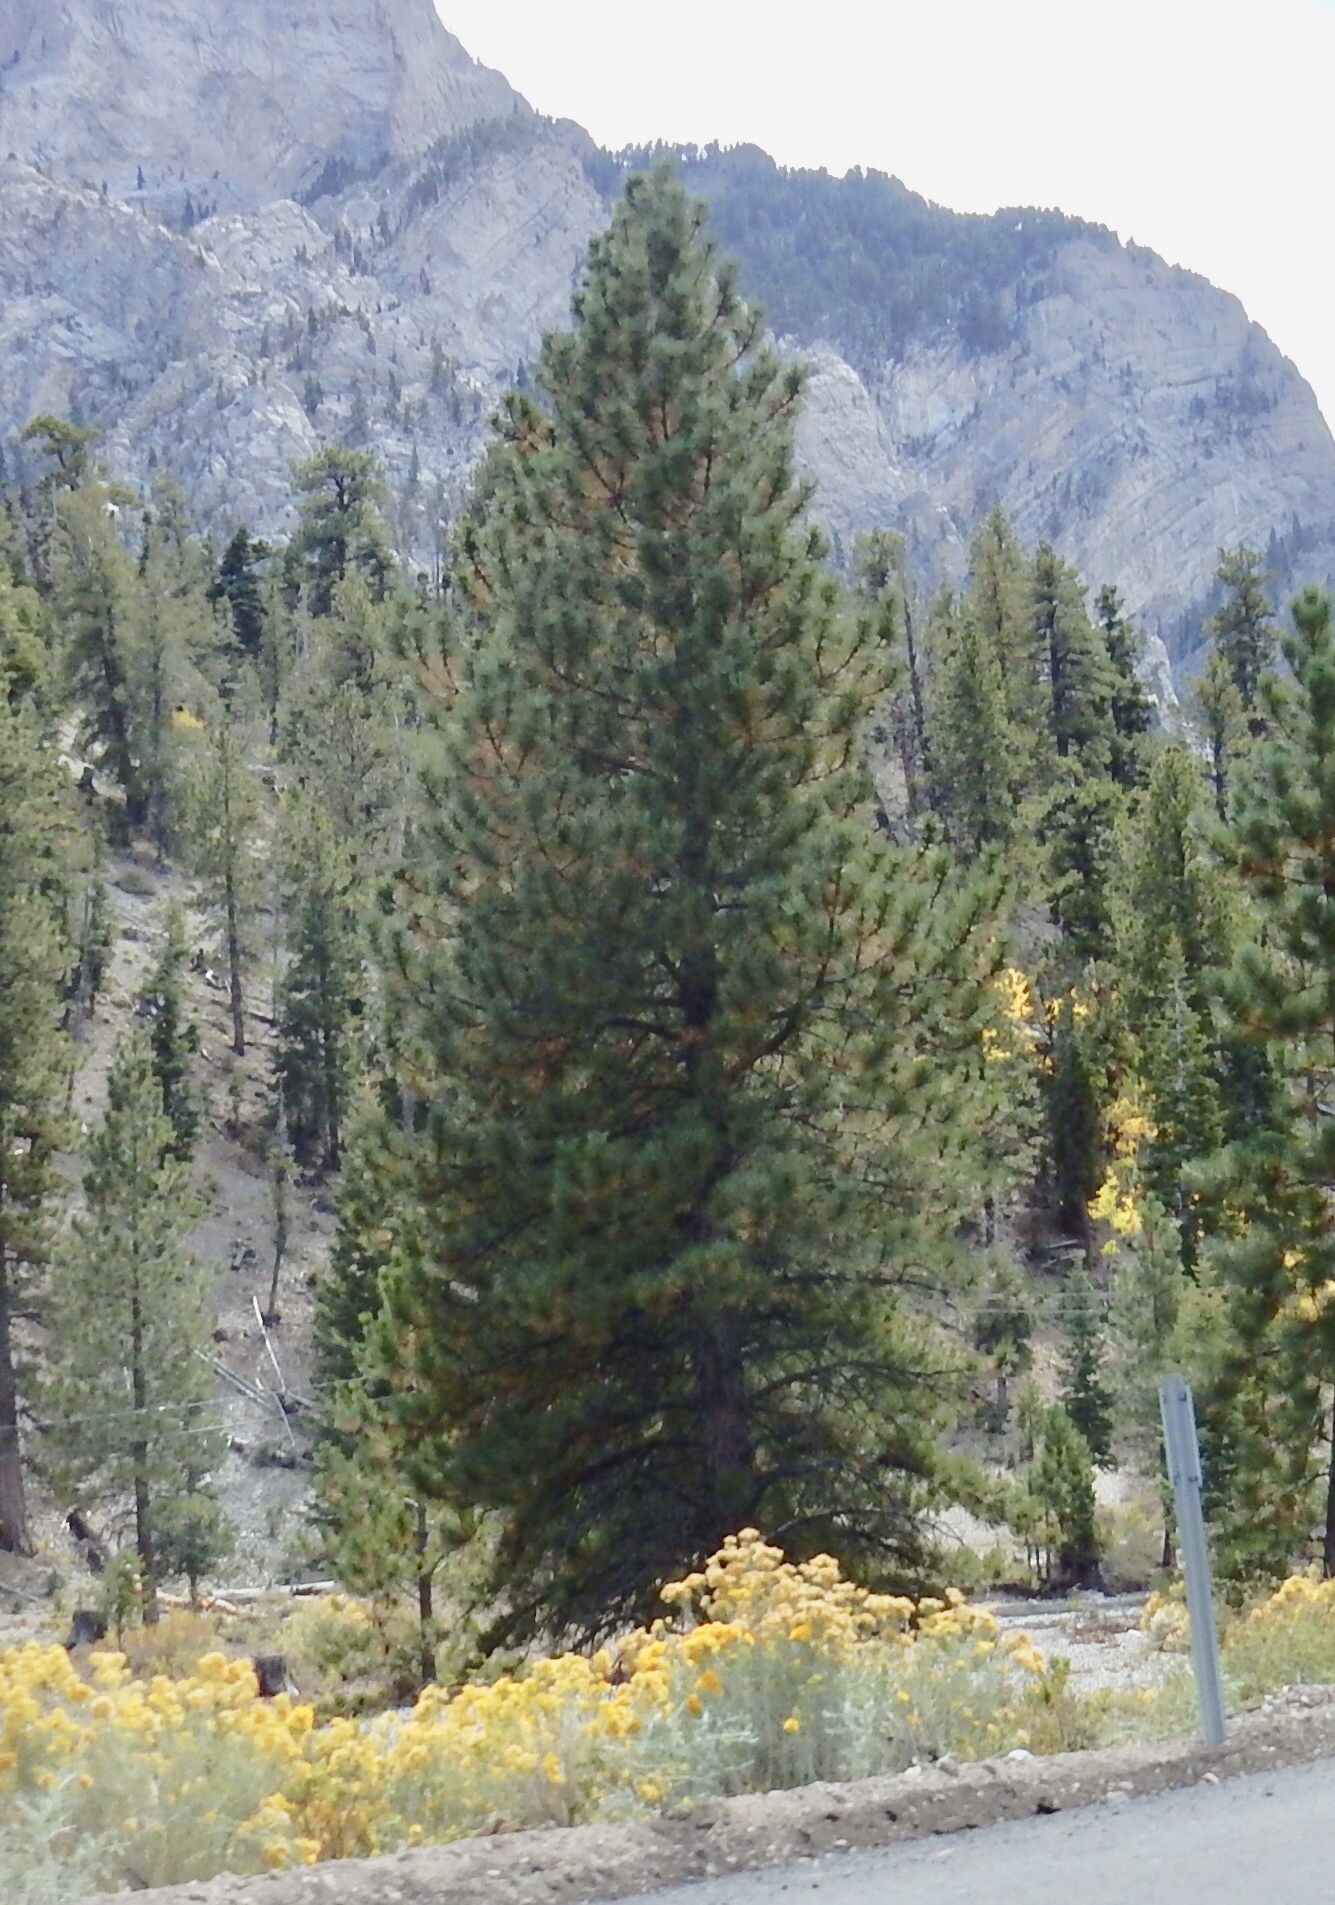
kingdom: Plantae
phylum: Tracheophyta
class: Pinopsida
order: Pinales
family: Pinaceae
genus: Pinus
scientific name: Pinus ponderosa
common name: Western yellow-pine
